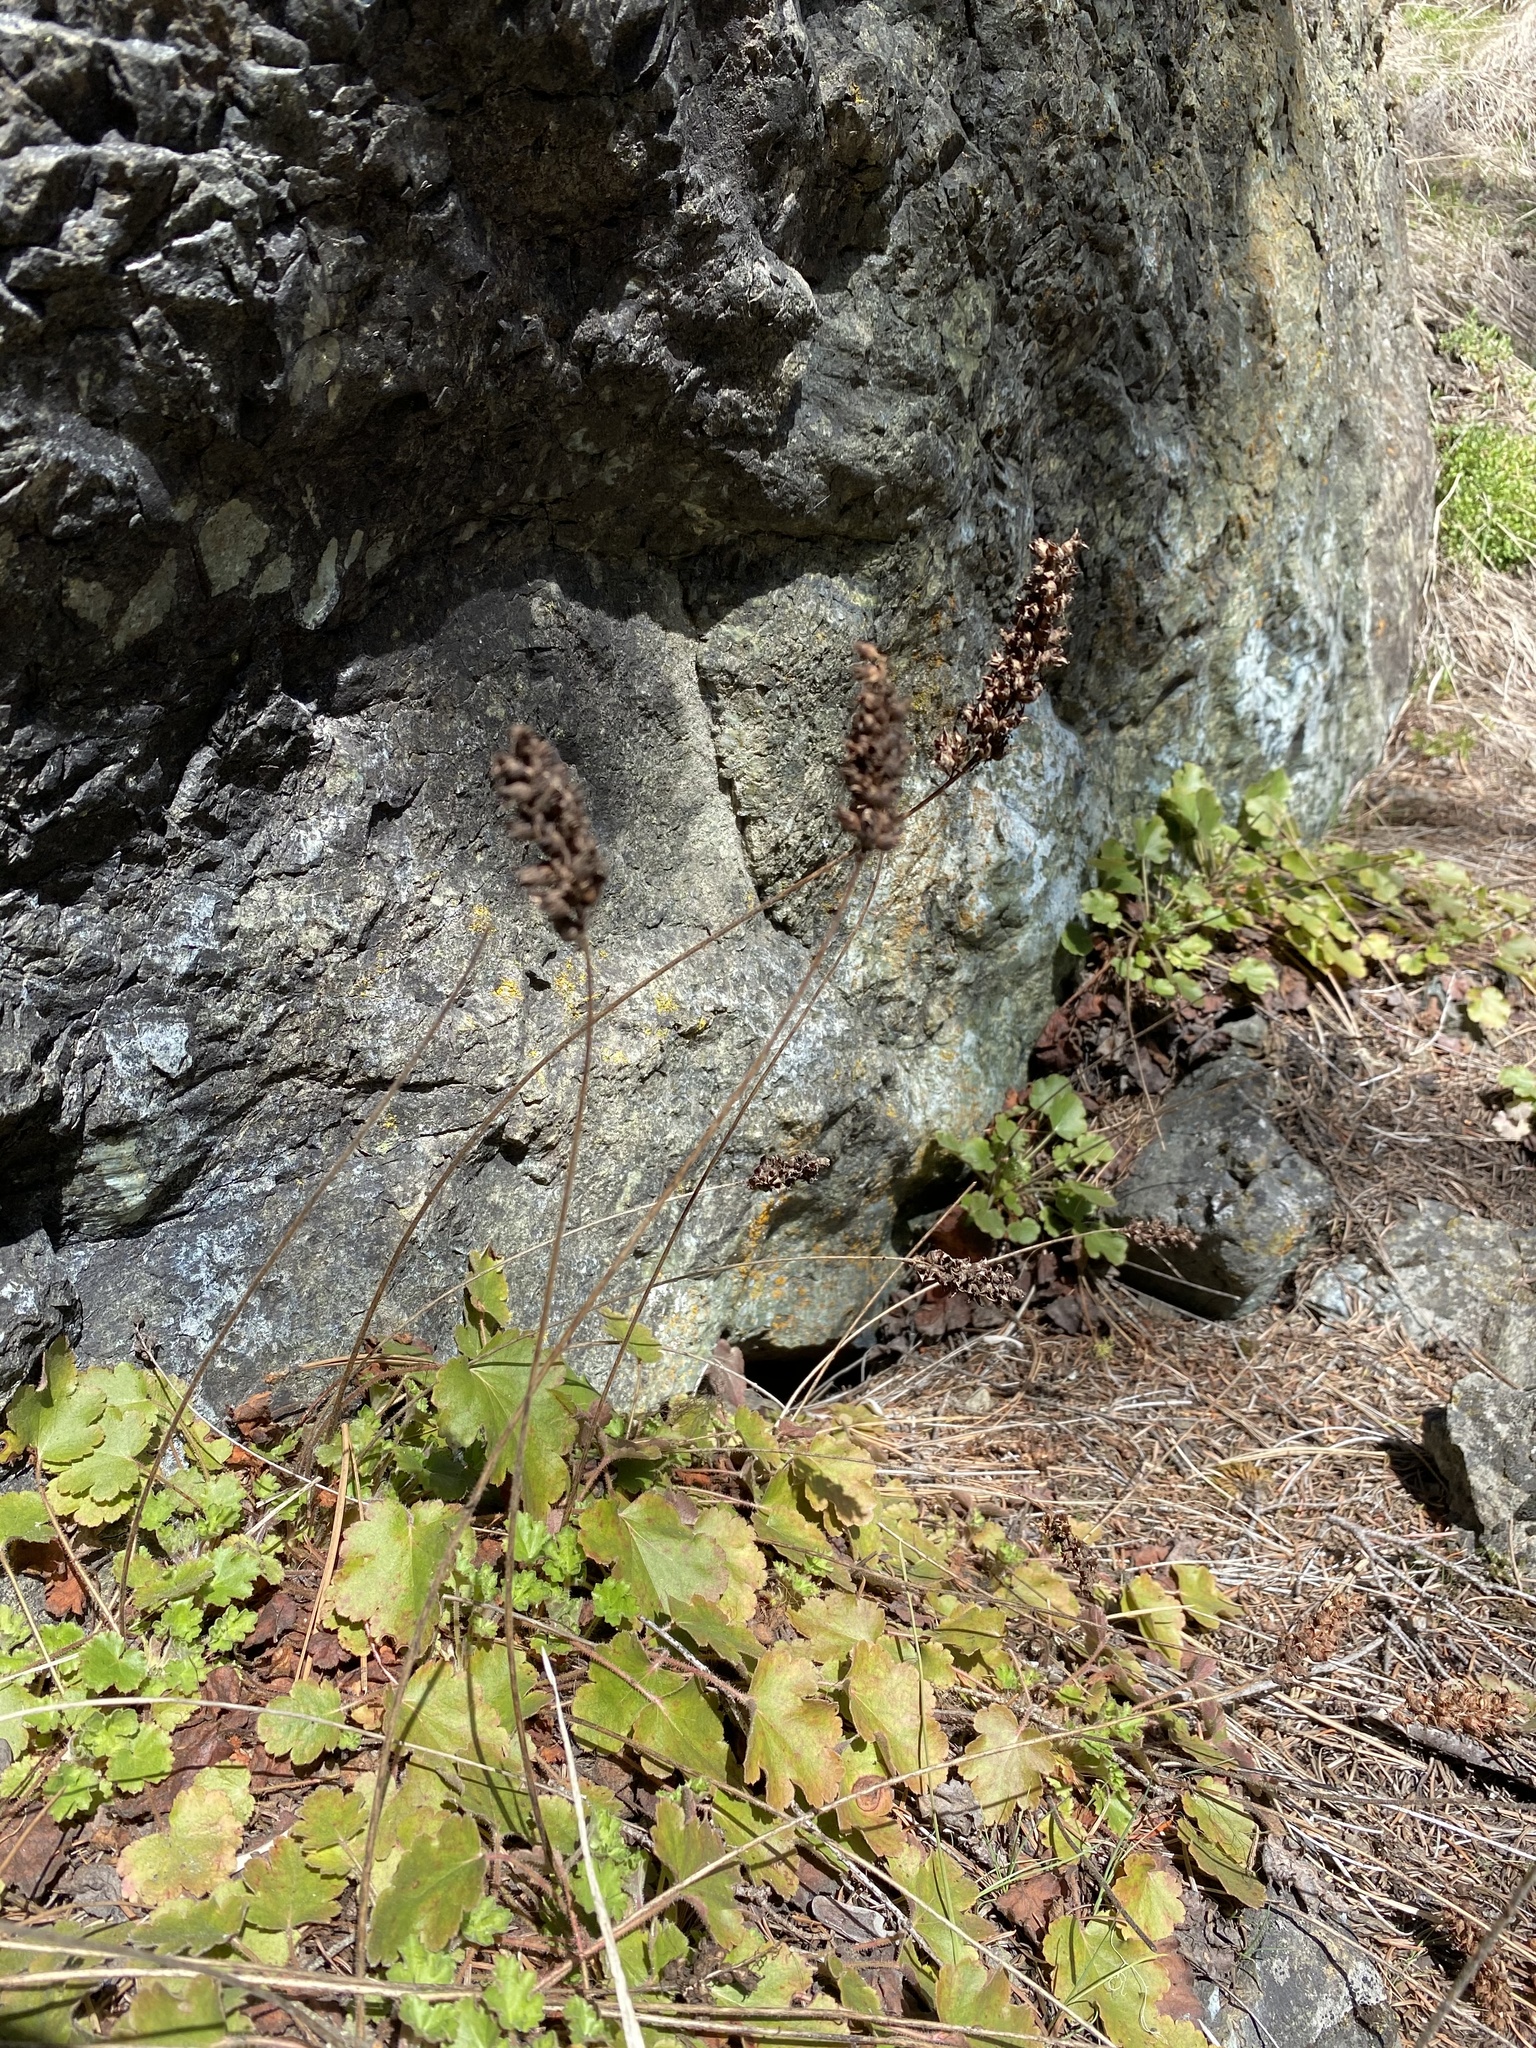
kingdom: Plantae
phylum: Tracheophyta
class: Magnoliopsida
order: Saxifragales
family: Saxifragaceae
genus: Heuchera
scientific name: Heuchera cylindrica
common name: Mat alumroot
